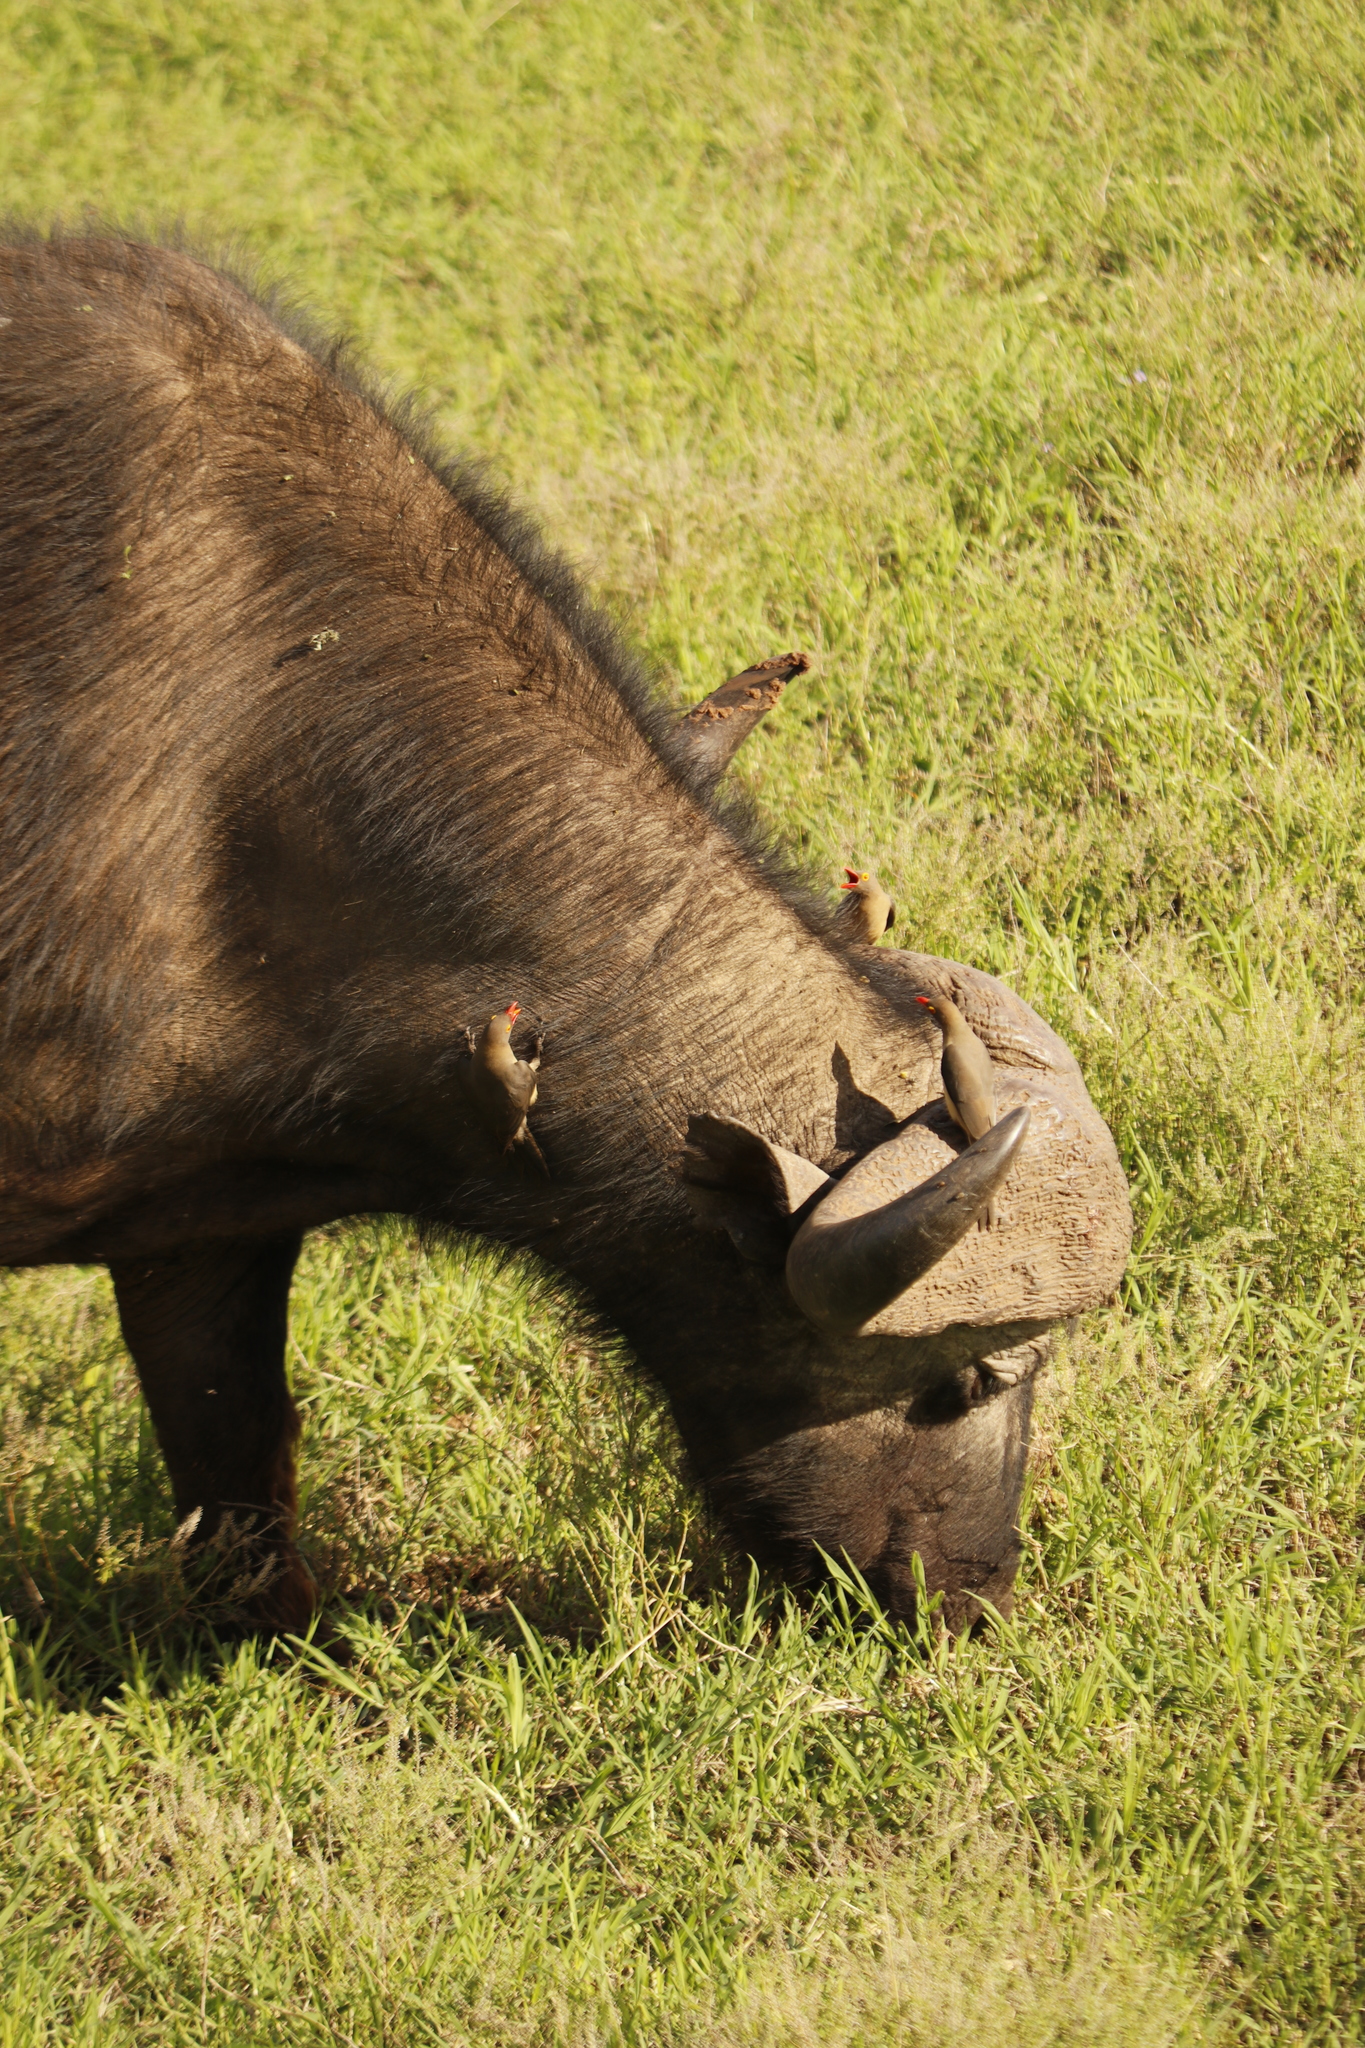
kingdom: Animalia
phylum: Chordata
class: Aves
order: Passeriformes
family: Buphagidae
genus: Buphagus
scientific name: Buphagus erythrorhynchus
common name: Red-billed oxpecker
